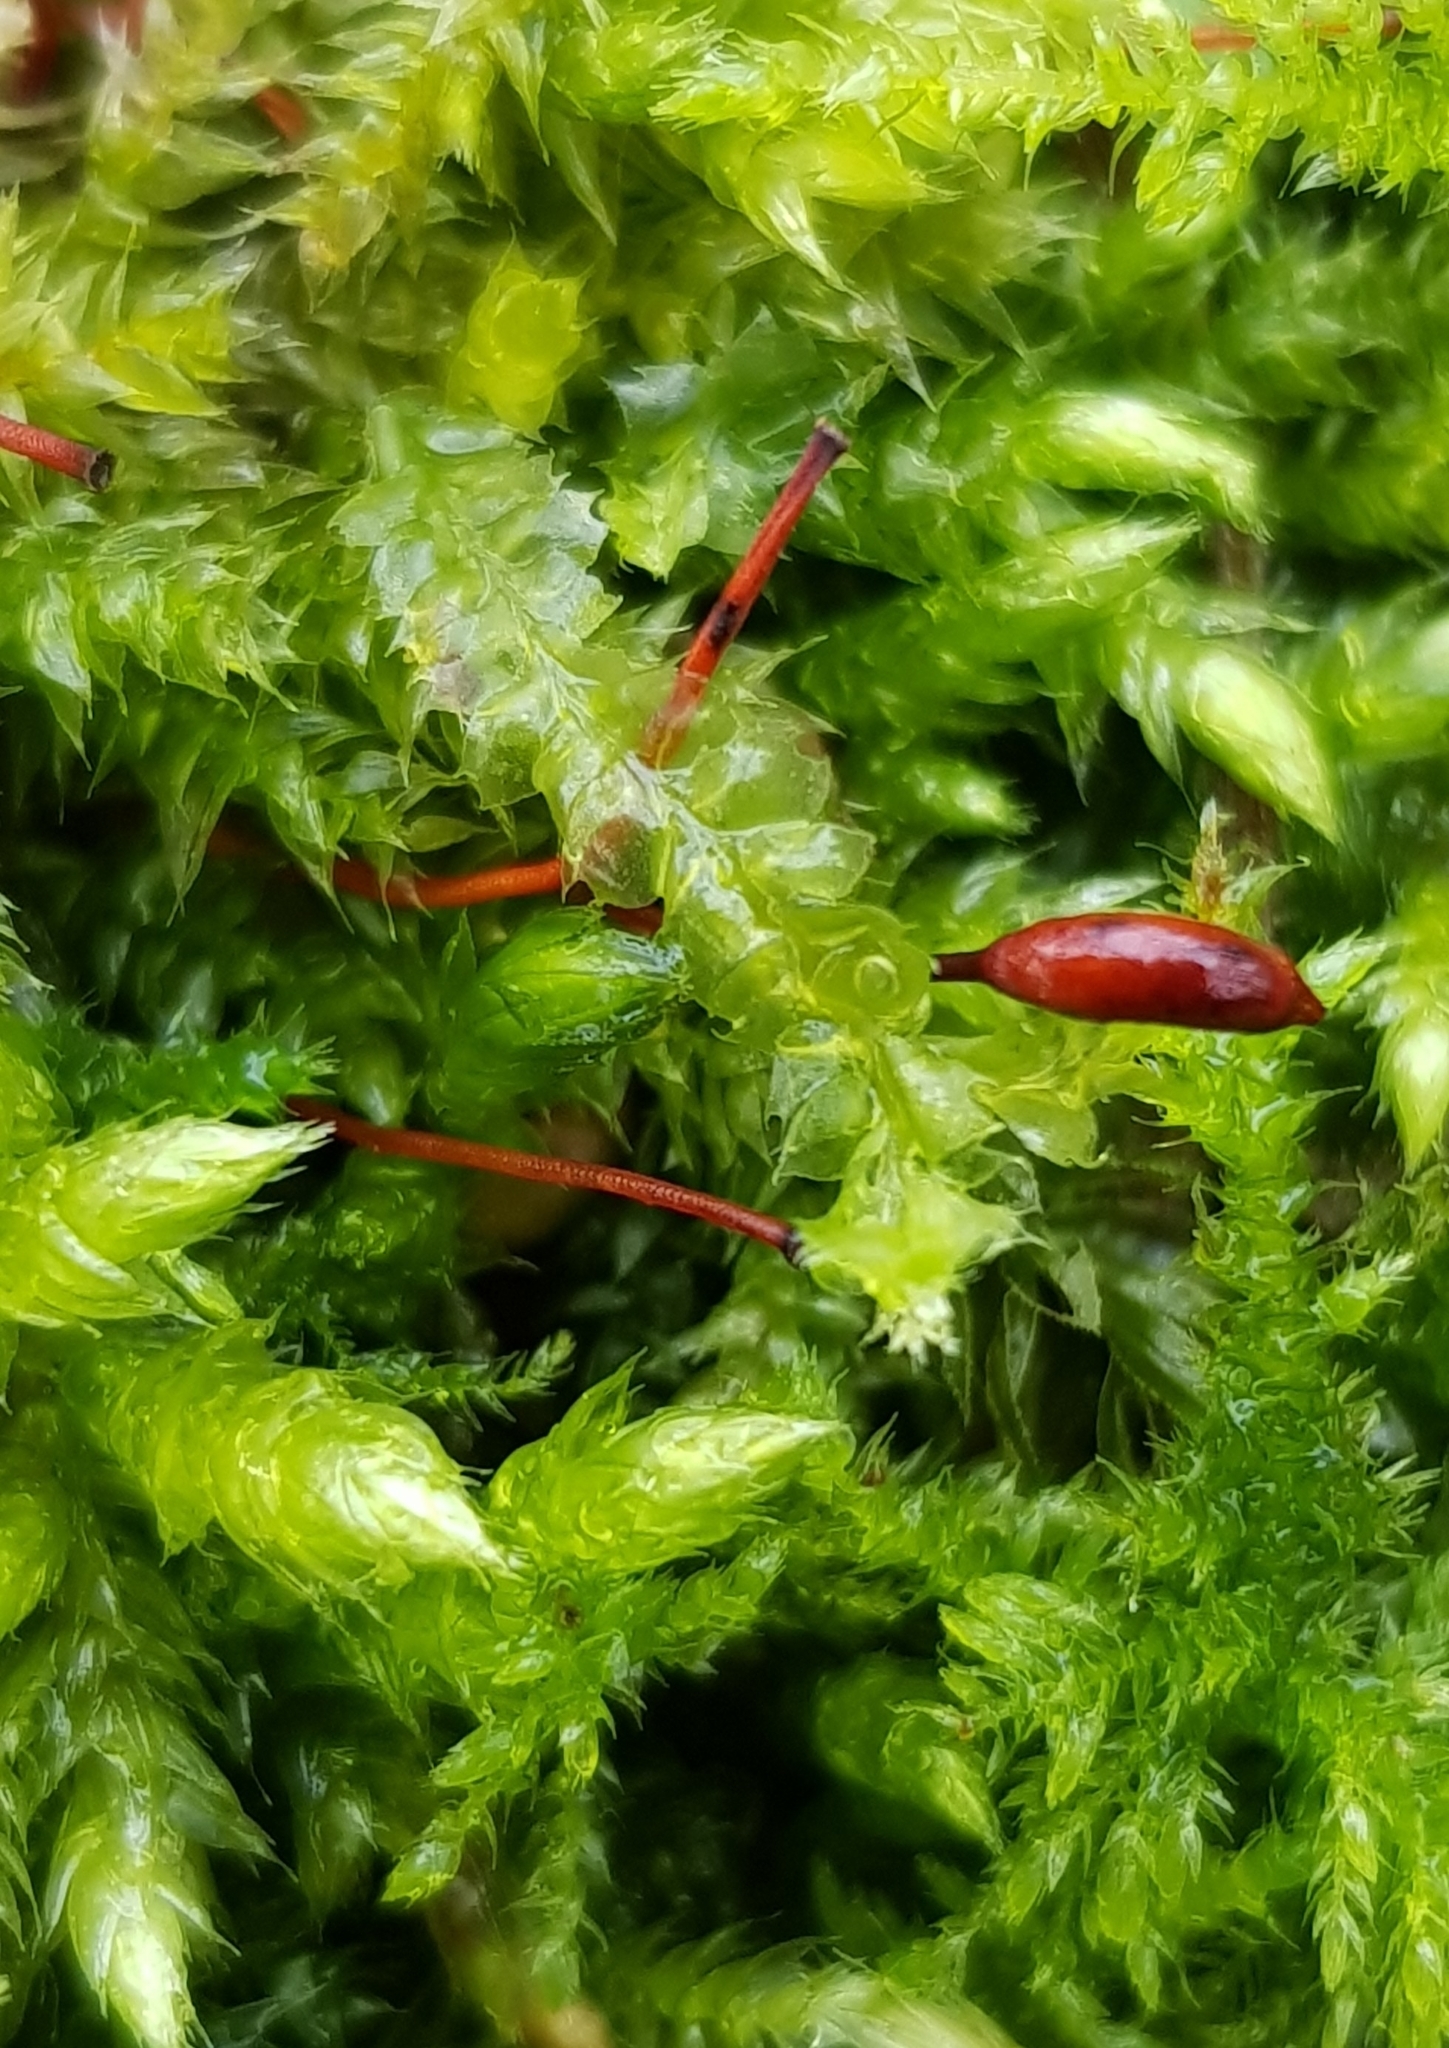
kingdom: Plantae
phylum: Marchantiophyta
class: Jungermanniopsida
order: Jungermanniales
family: Lophocoleaceae
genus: Lophocolea
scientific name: Lophocolea bidentata
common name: Bifid crestwort
